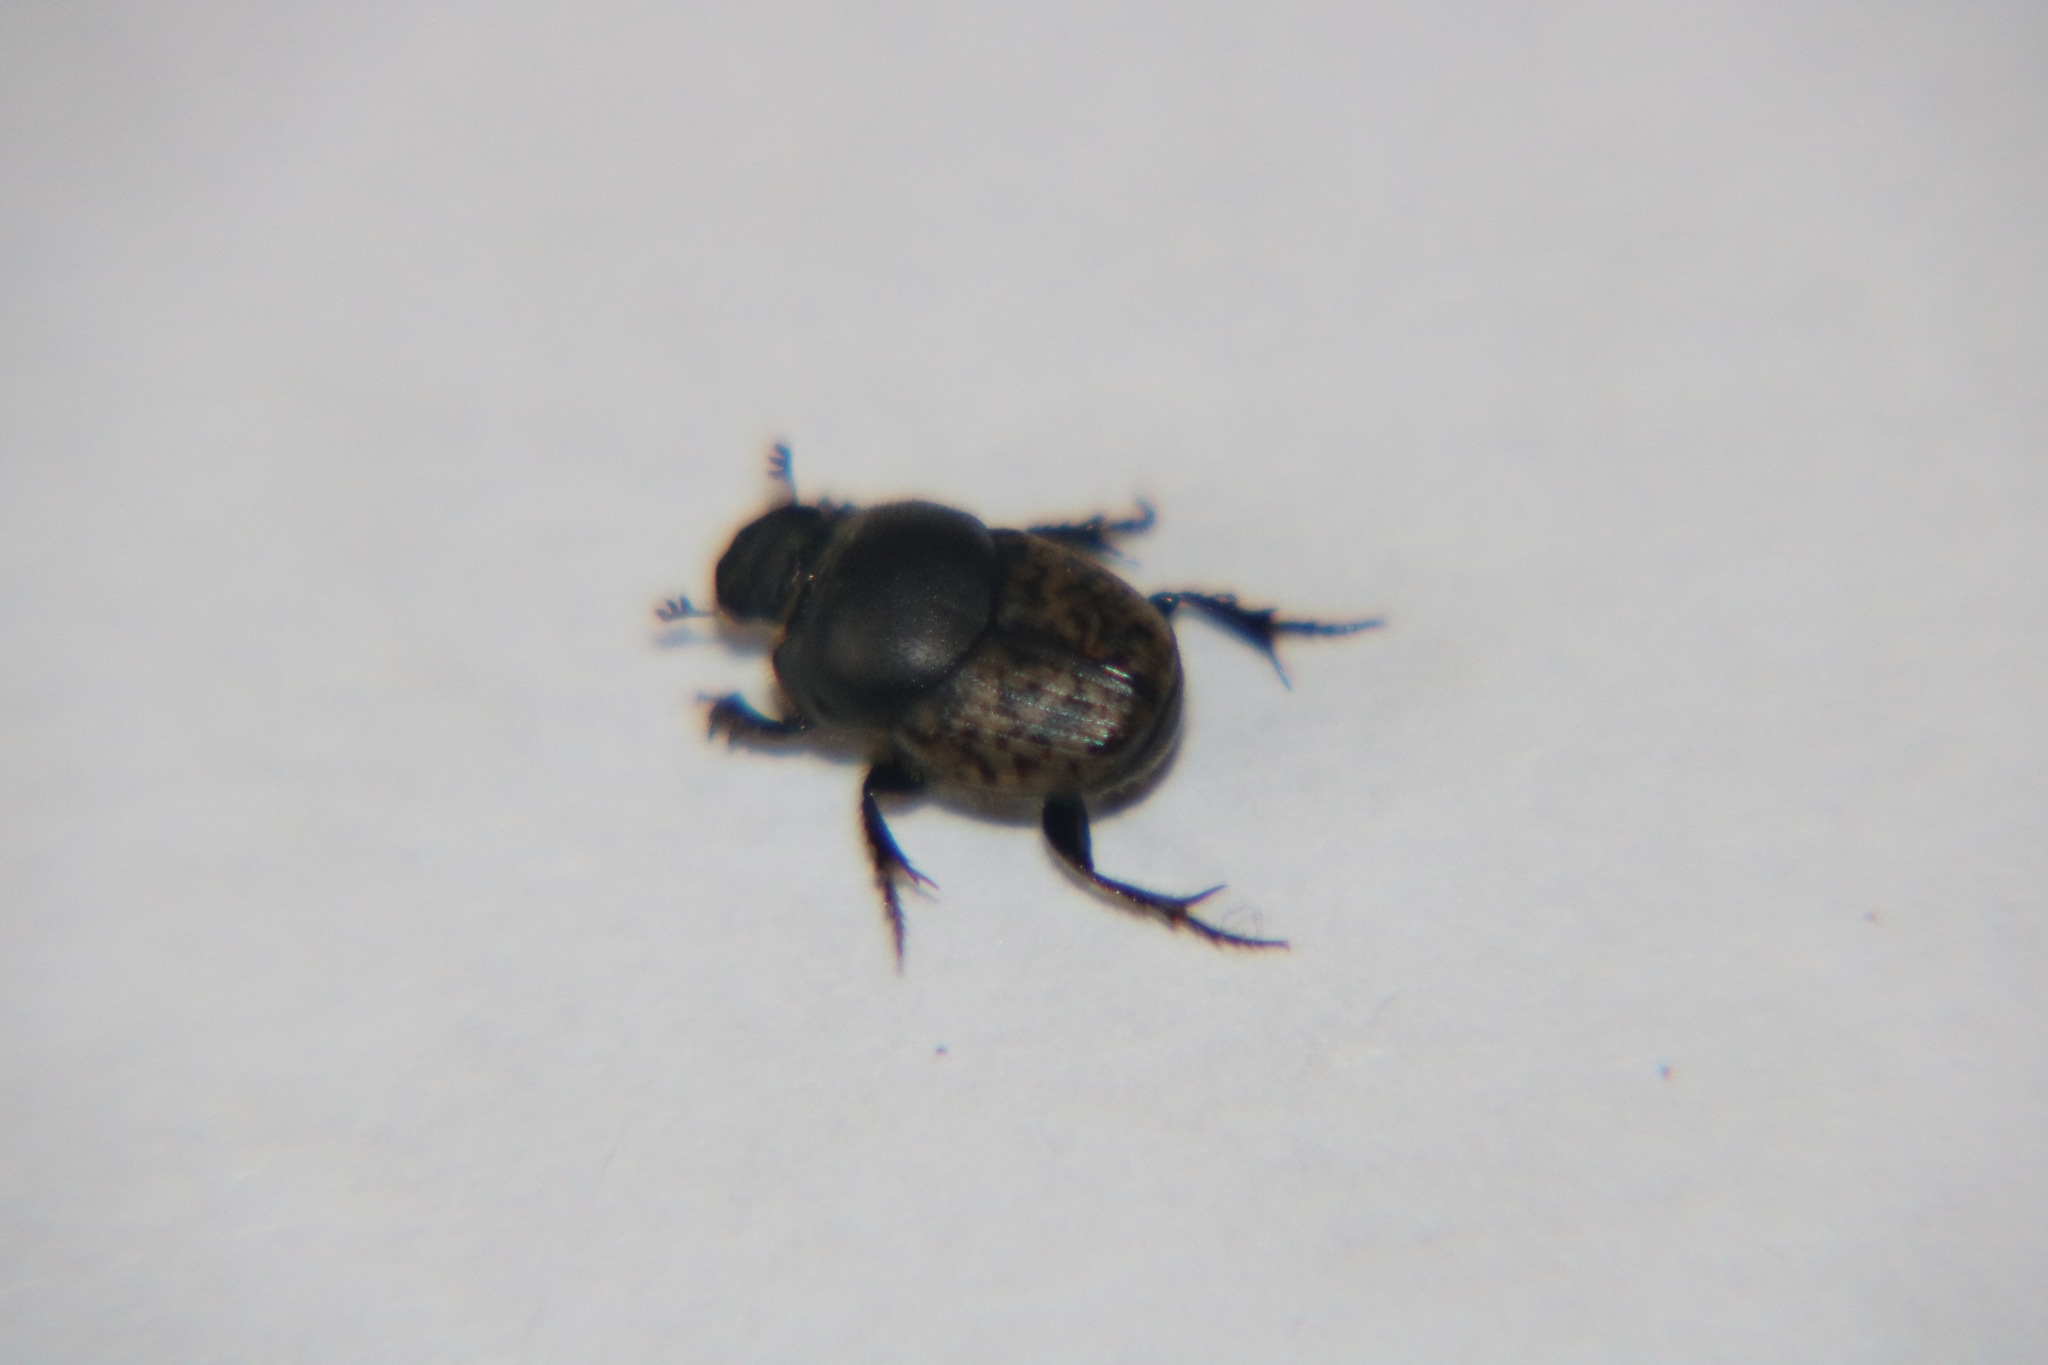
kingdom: Animalia
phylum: Arthropoda
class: Insecta
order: Coleoptera
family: Scarabaeidae
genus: Onthophagus
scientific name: Onthophagus nuchicornis
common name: Mottled dung beetle
